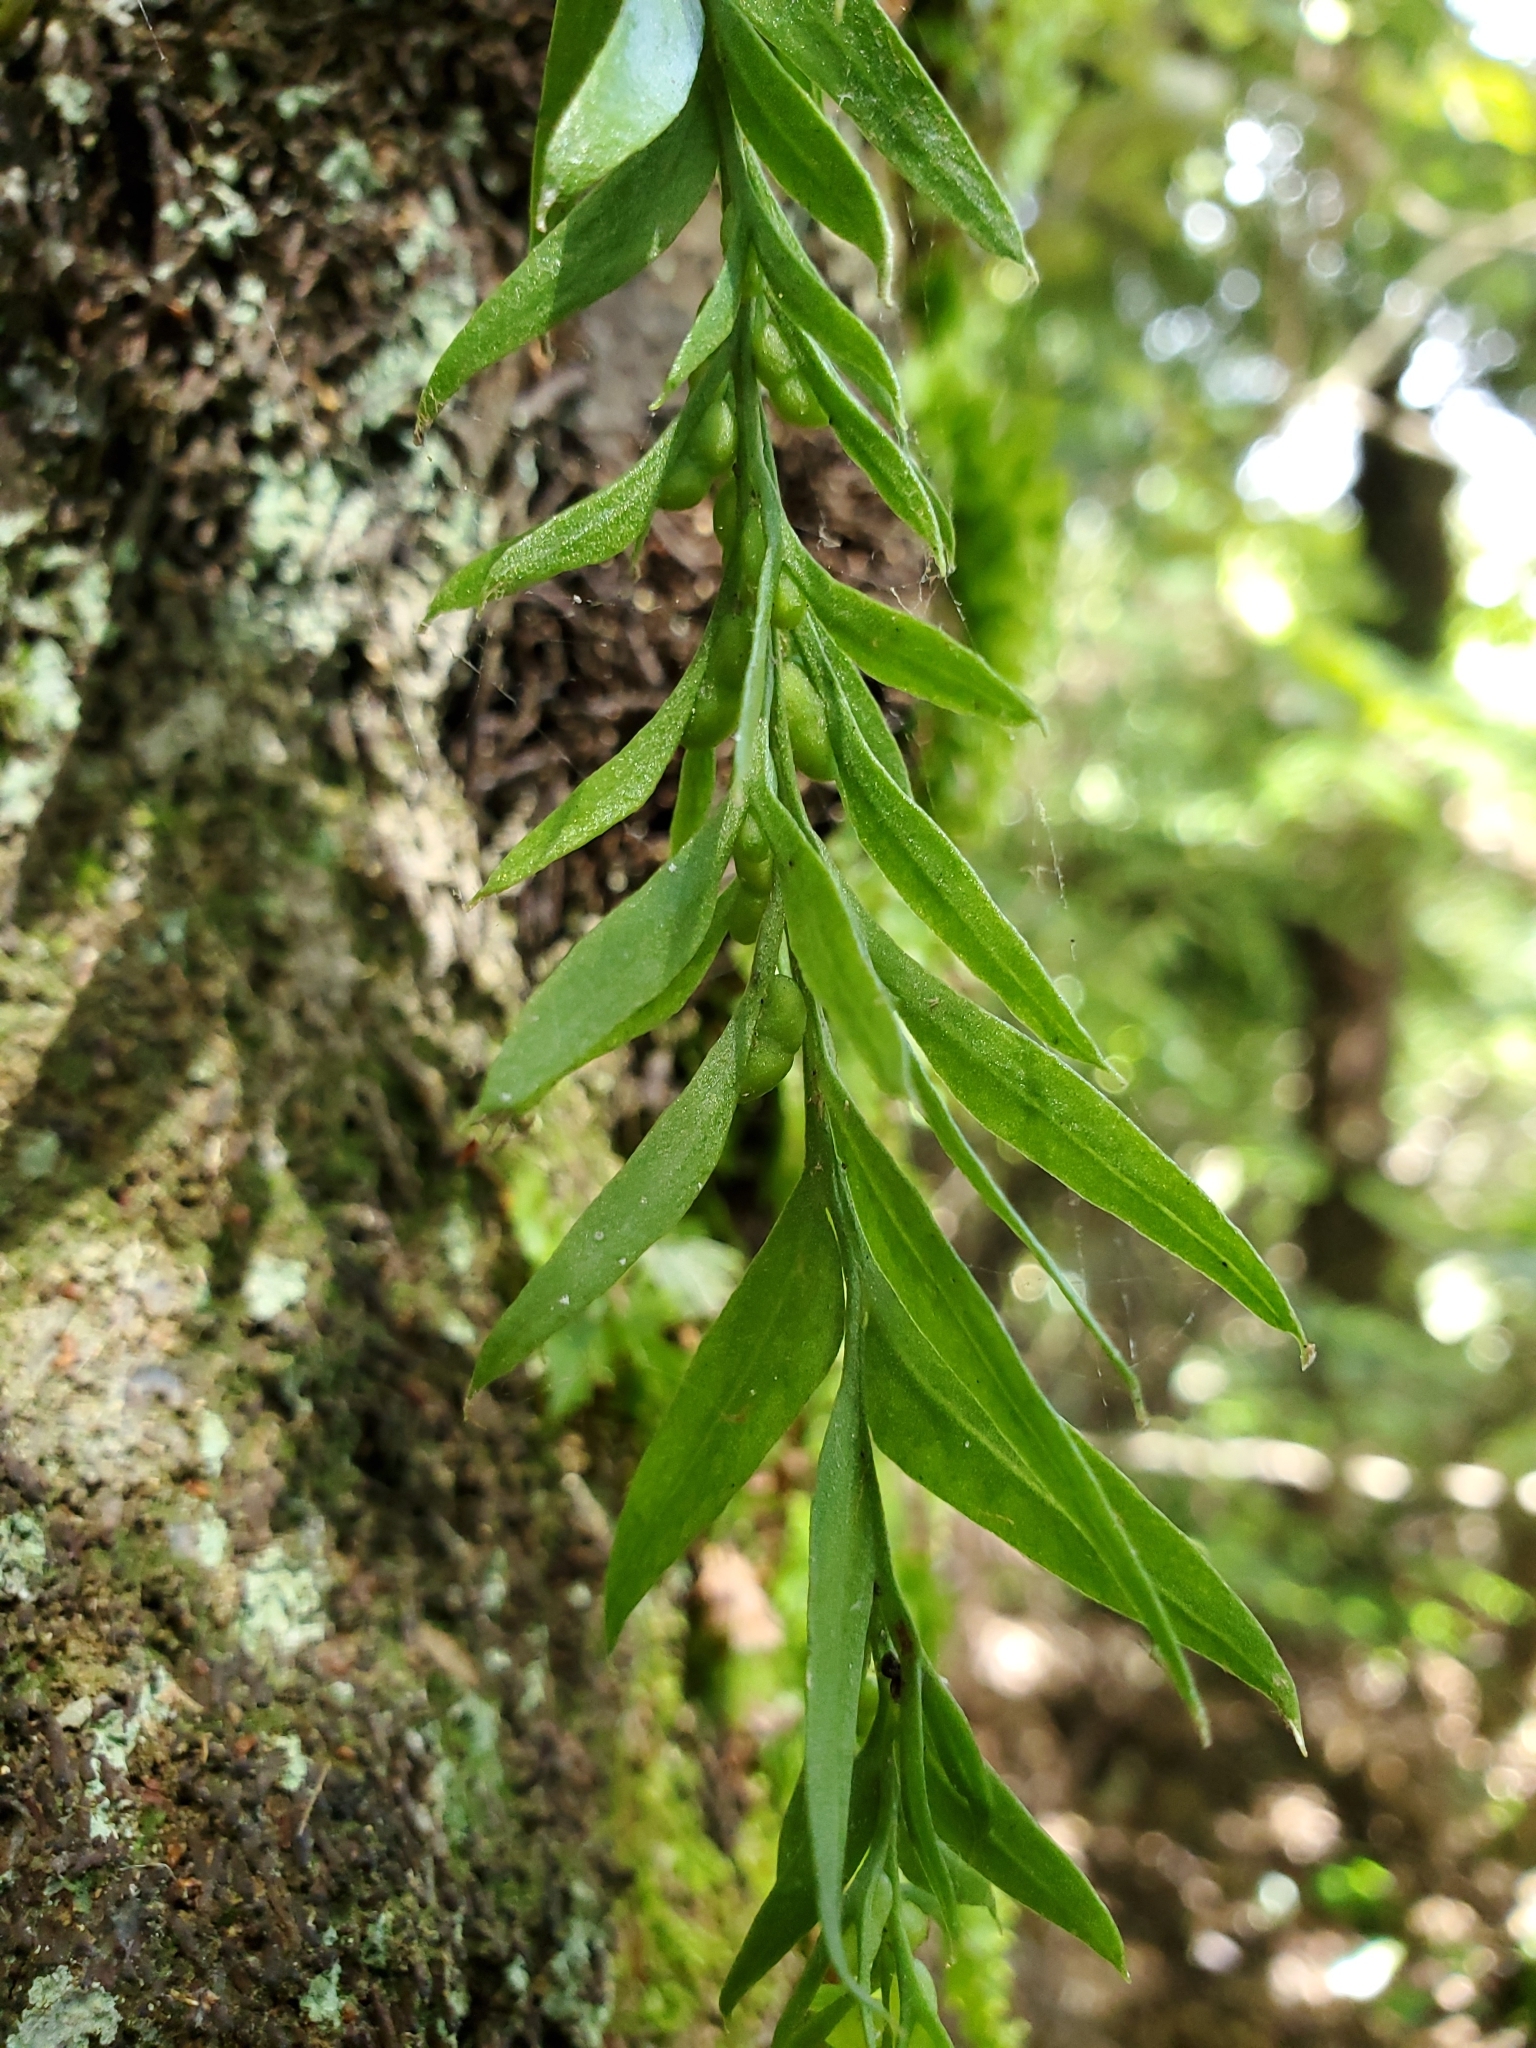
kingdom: Plantae
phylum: Tracheophyta
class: Polypodiopsida
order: Psilotales
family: Psilotaceae
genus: Tmesipteris
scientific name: Tmesipteris elongata
